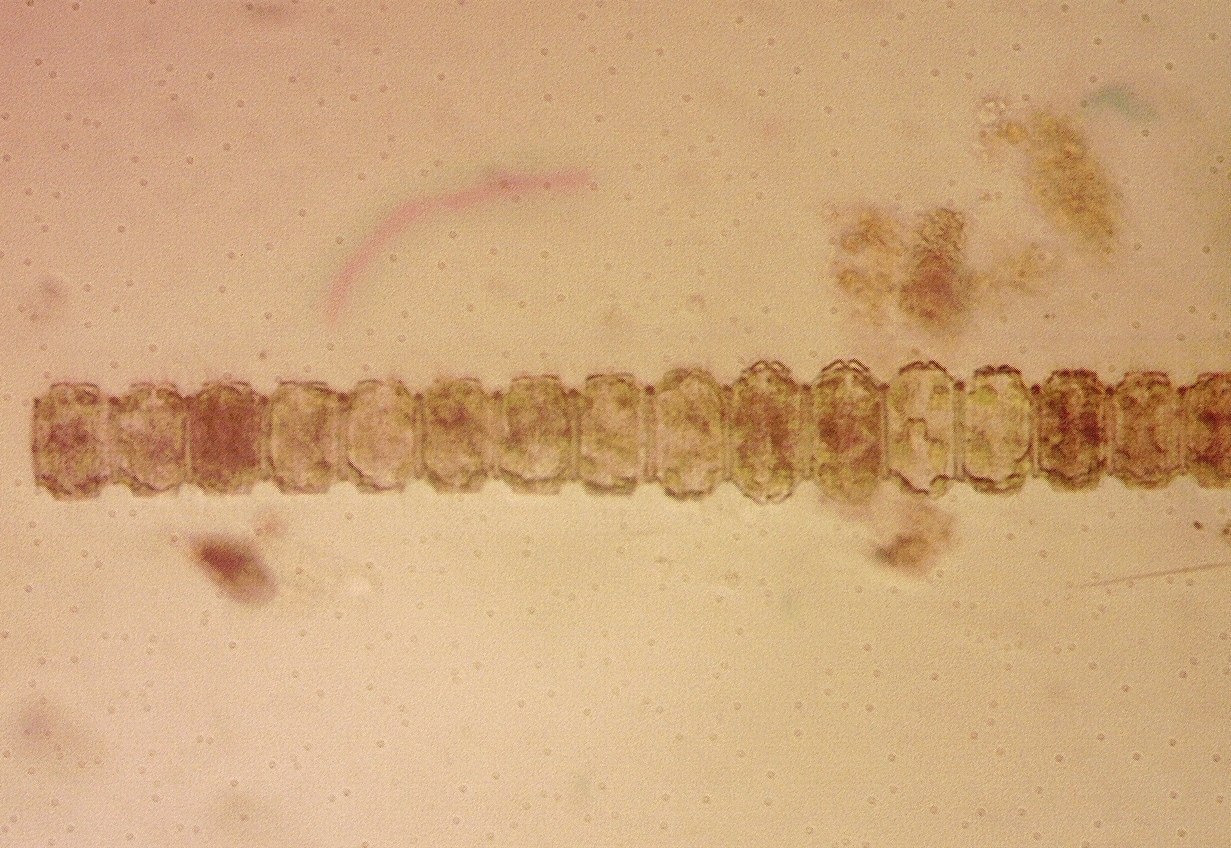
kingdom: Plantae
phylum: Charophyta
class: Conjugatophyceae
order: Desmidiales
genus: Desmidium
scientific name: Desmidium grevillei
